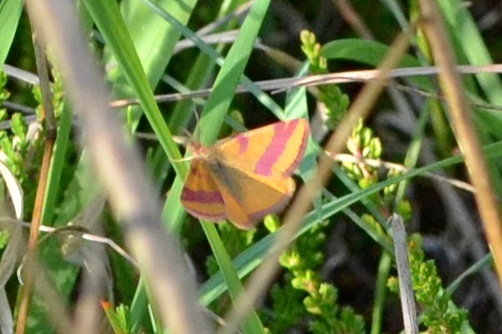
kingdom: Animalia
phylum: Arthropoda
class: Insecta
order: Lepidoptera
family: Geometridae
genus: Lythria
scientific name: Lythria cruentaria
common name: Purple-barred yellow
